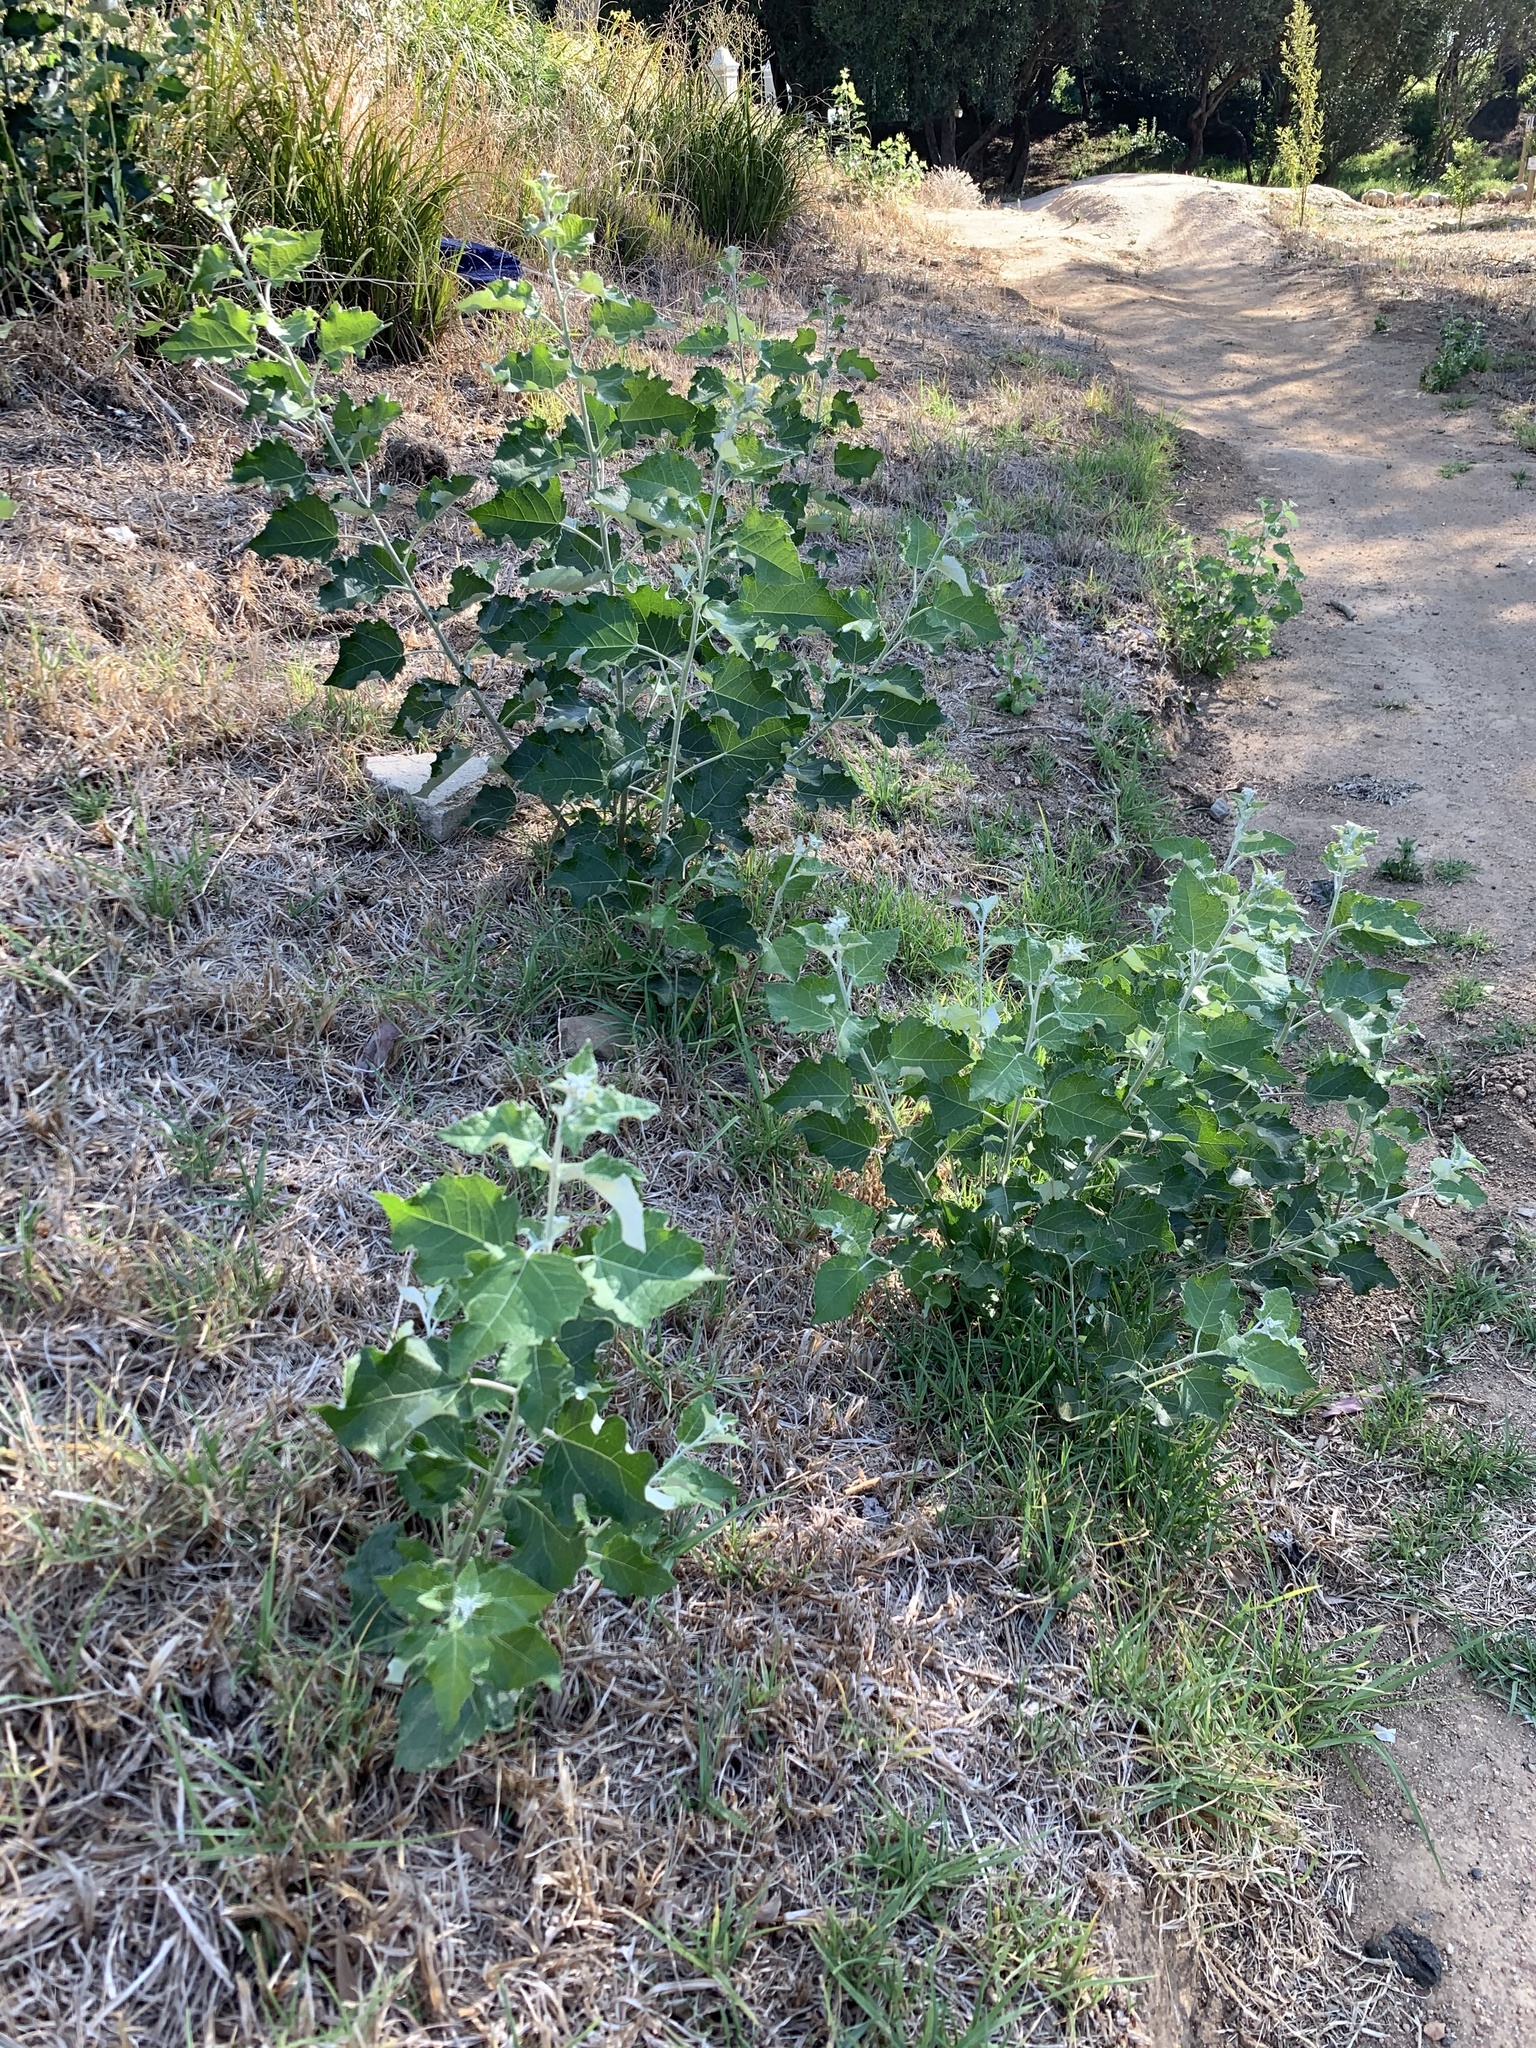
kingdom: Plantae
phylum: Tracheophyta
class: Magnoliopsida
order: Malpighiales
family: Salicaceae
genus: Populus
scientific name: Populus canescens
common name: Gray poplar
